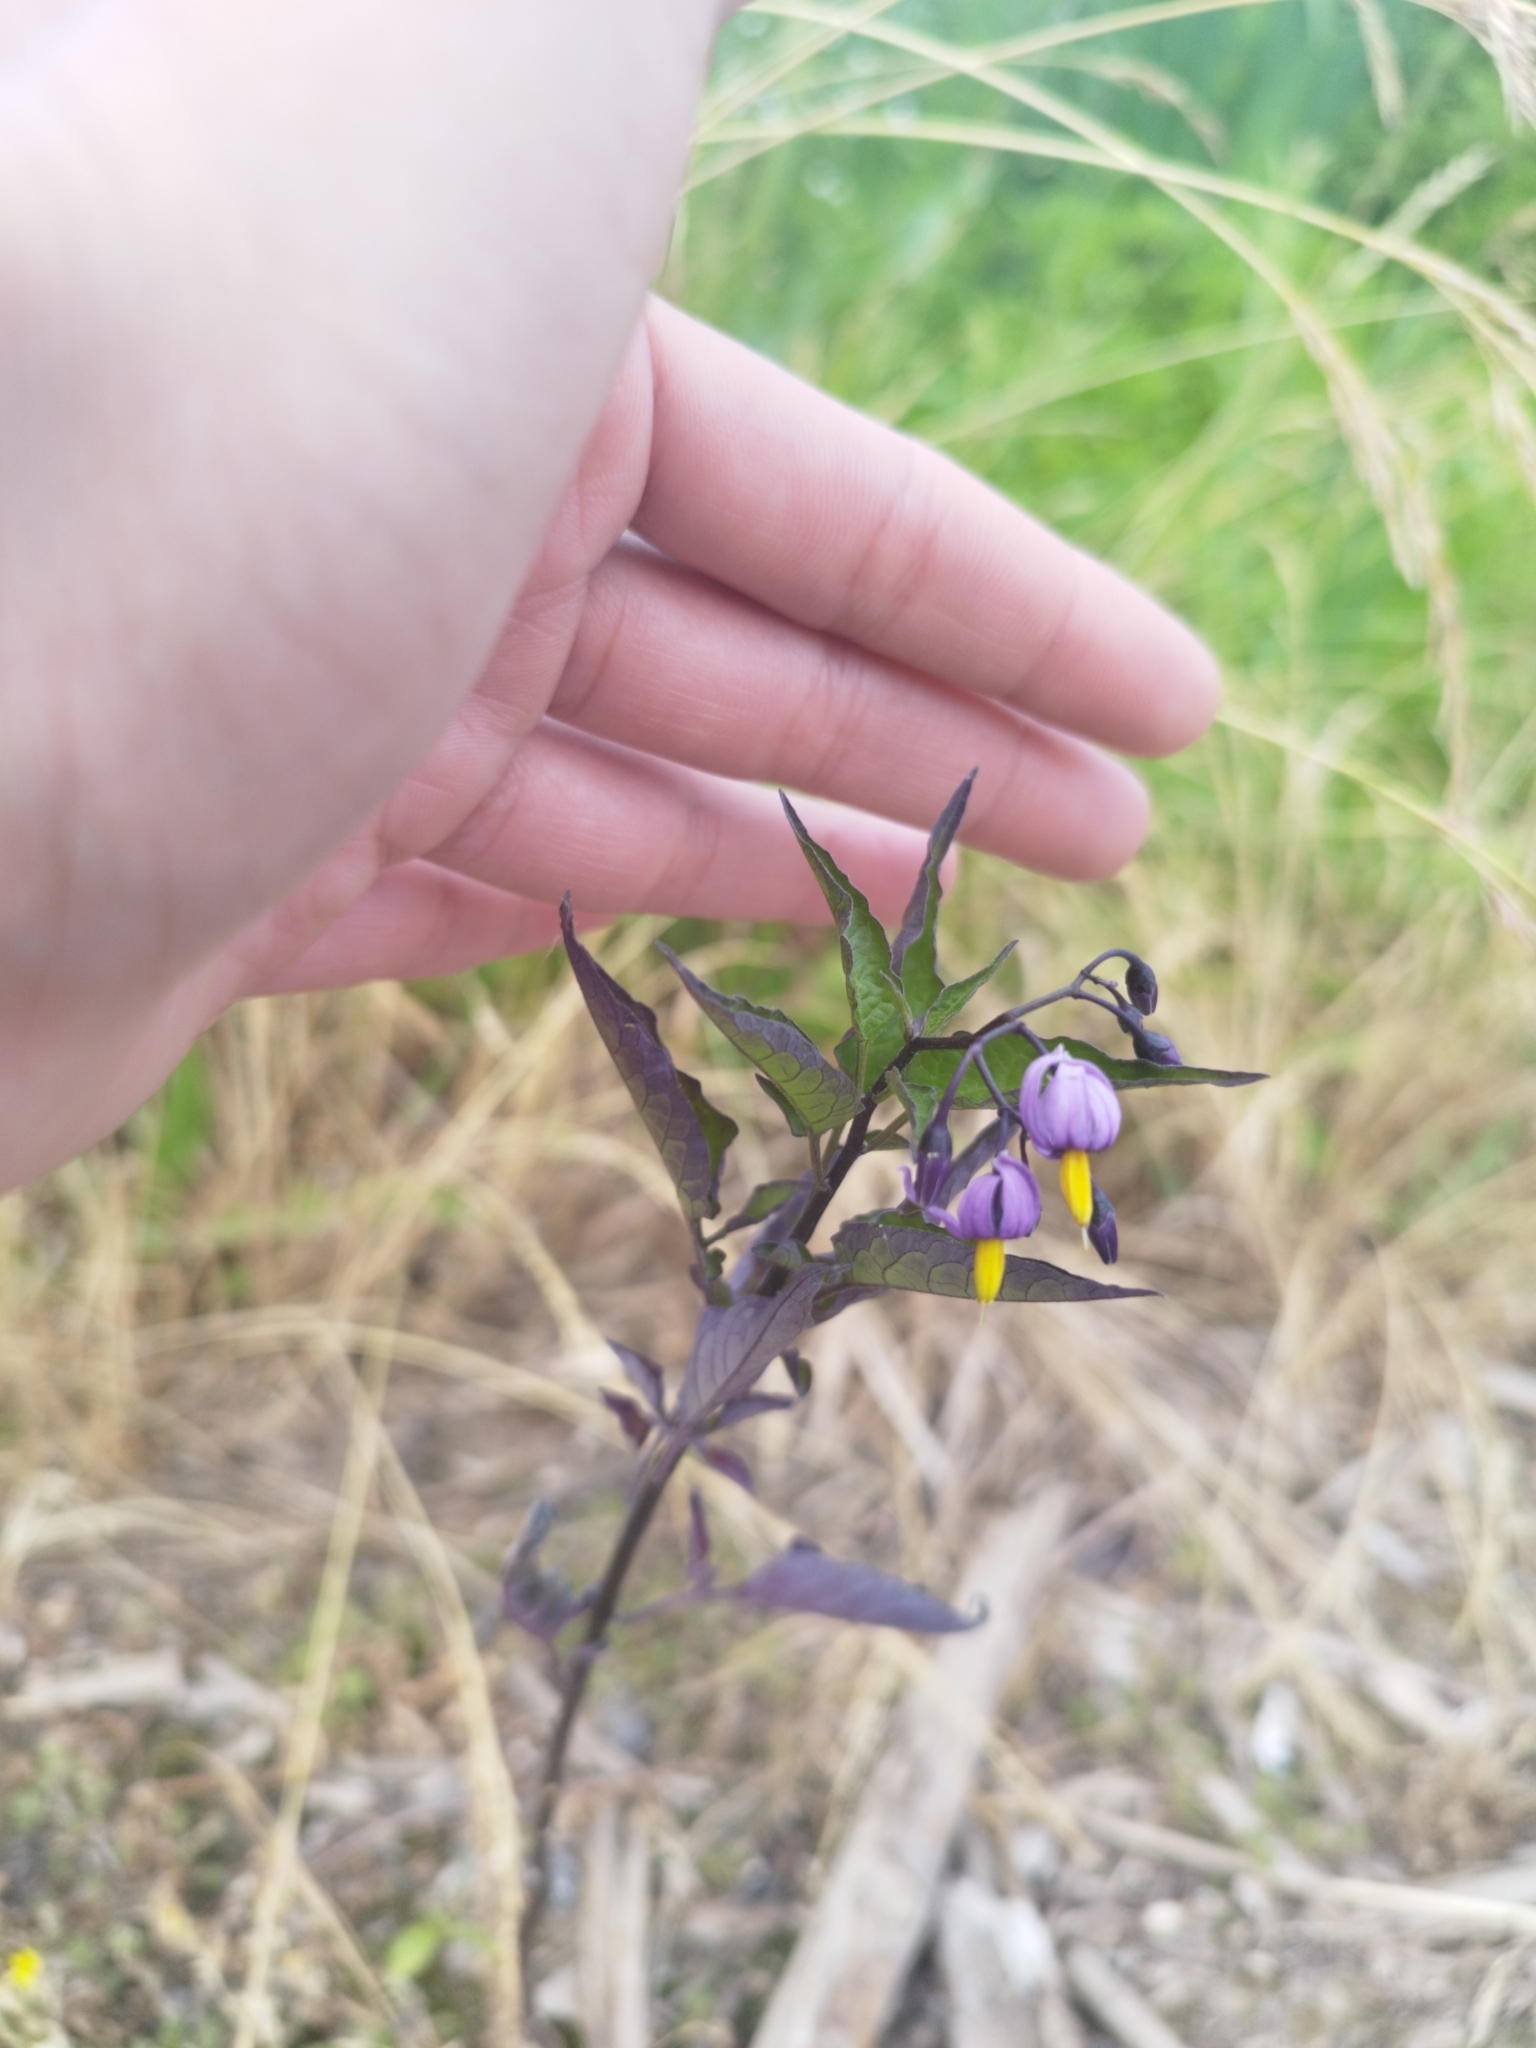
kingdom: Plantae
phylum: Tracheophyta
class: Magnoliopsida
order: Solanales
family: Solanaceae
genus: Solanum
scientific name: Solanum dulcamara
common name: Climbing nightshade
